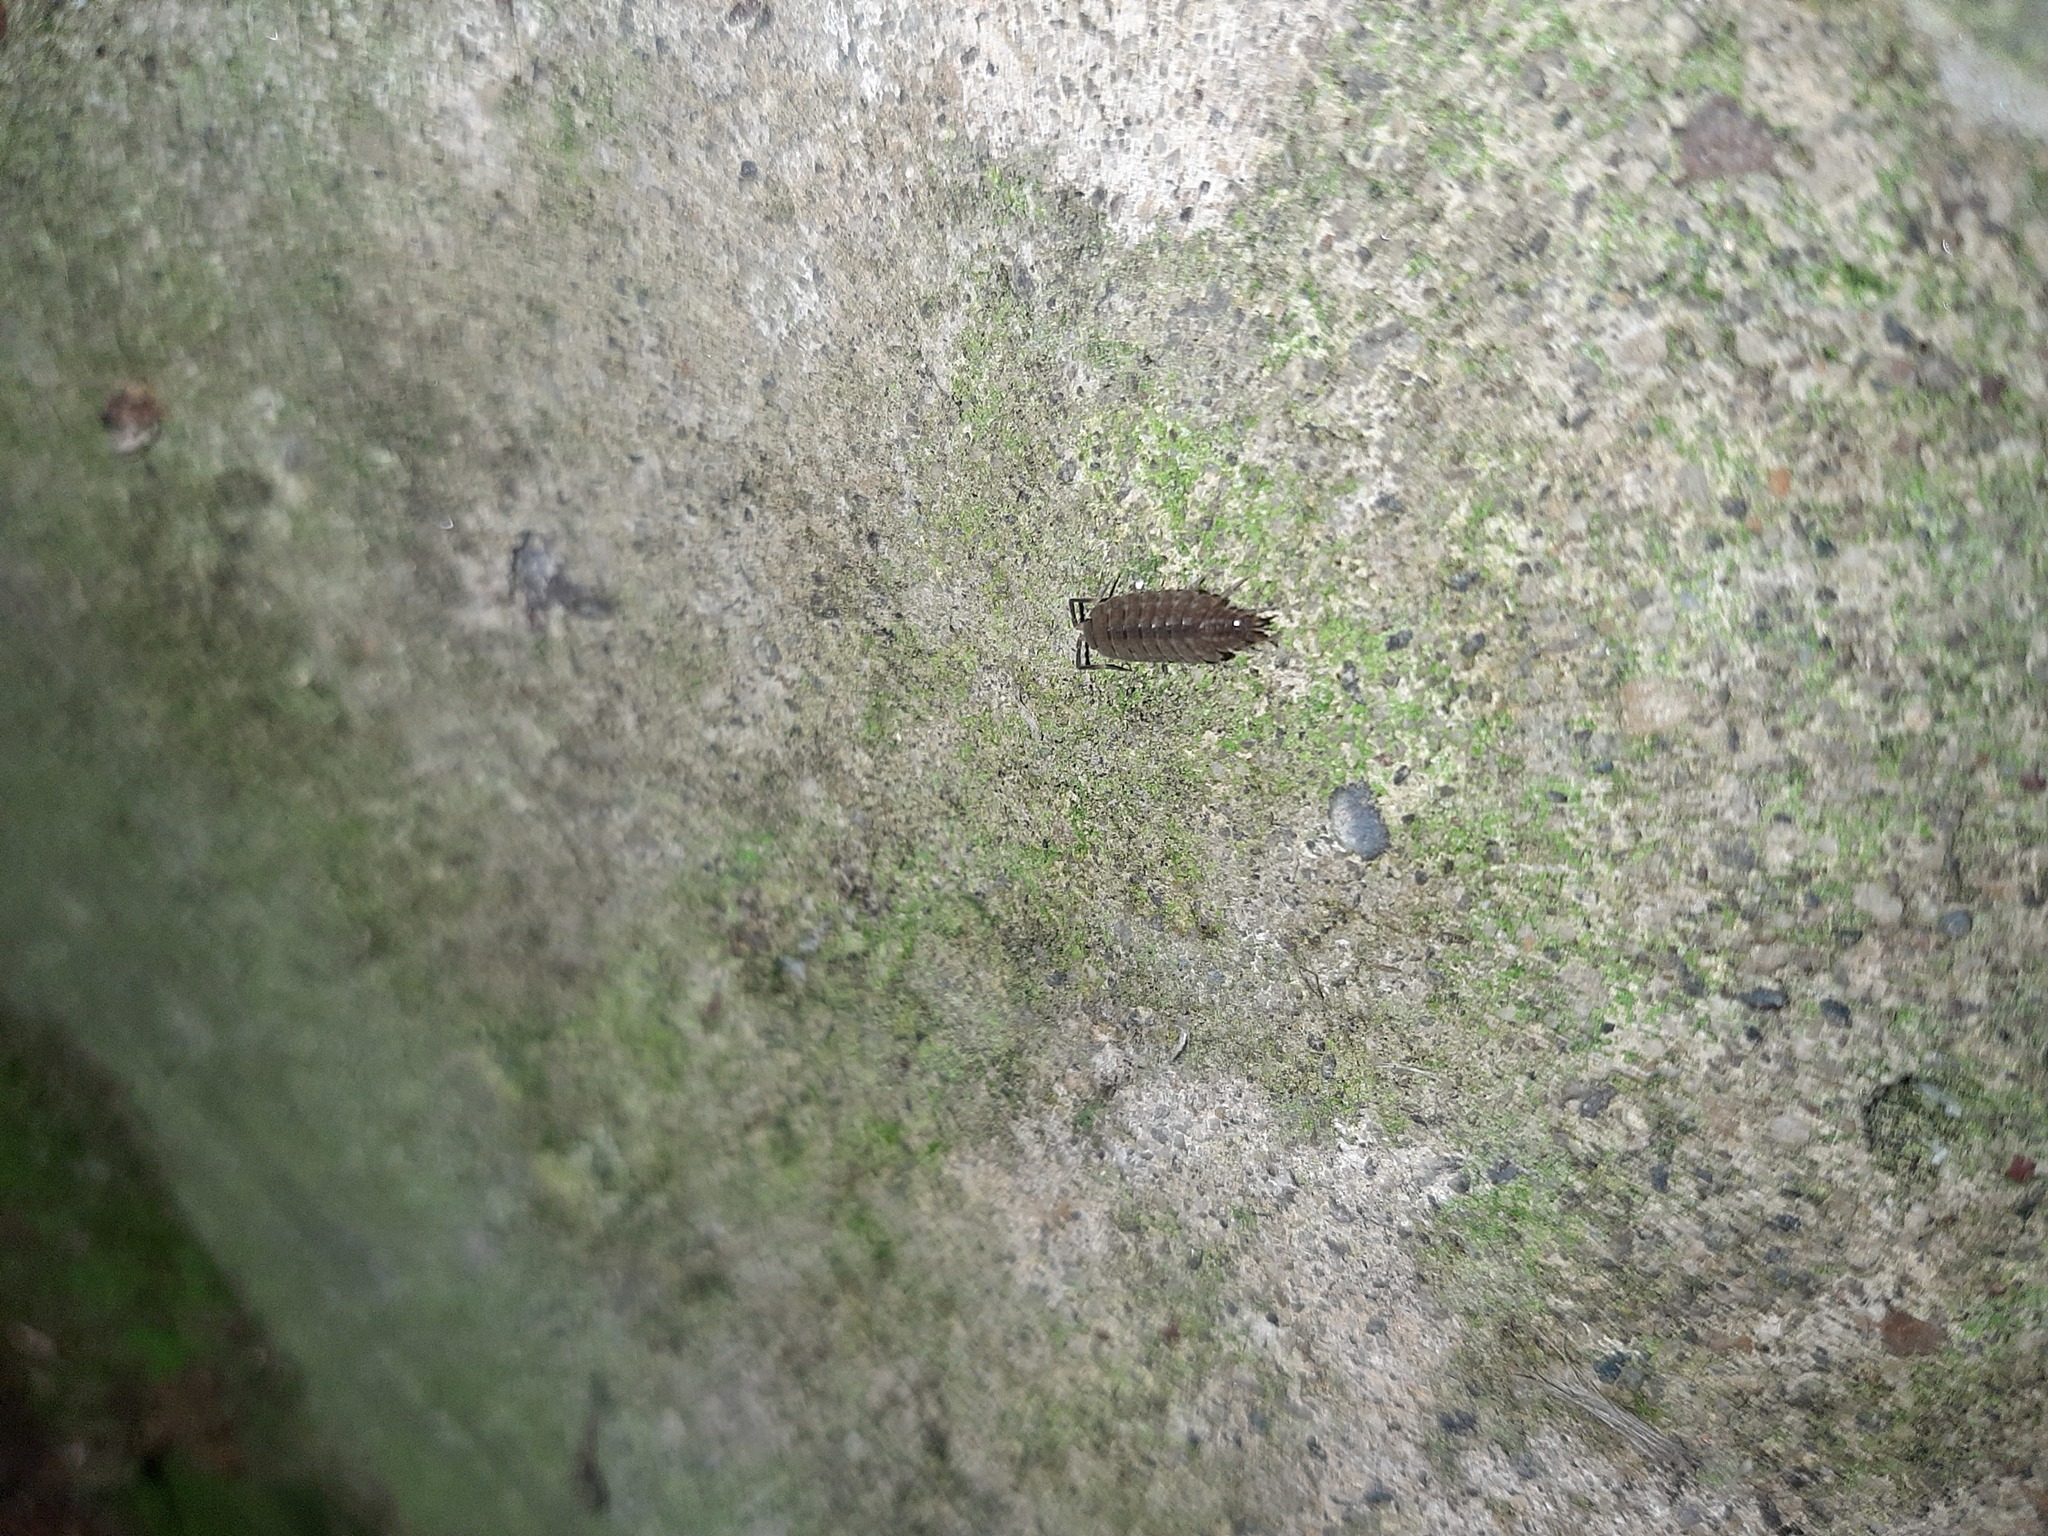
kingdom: Animalia
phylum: Arthropoda
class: Malacostraca
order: Isopoda
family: Agnaridae
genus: Orthometopon
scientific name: Orthometopon planum
